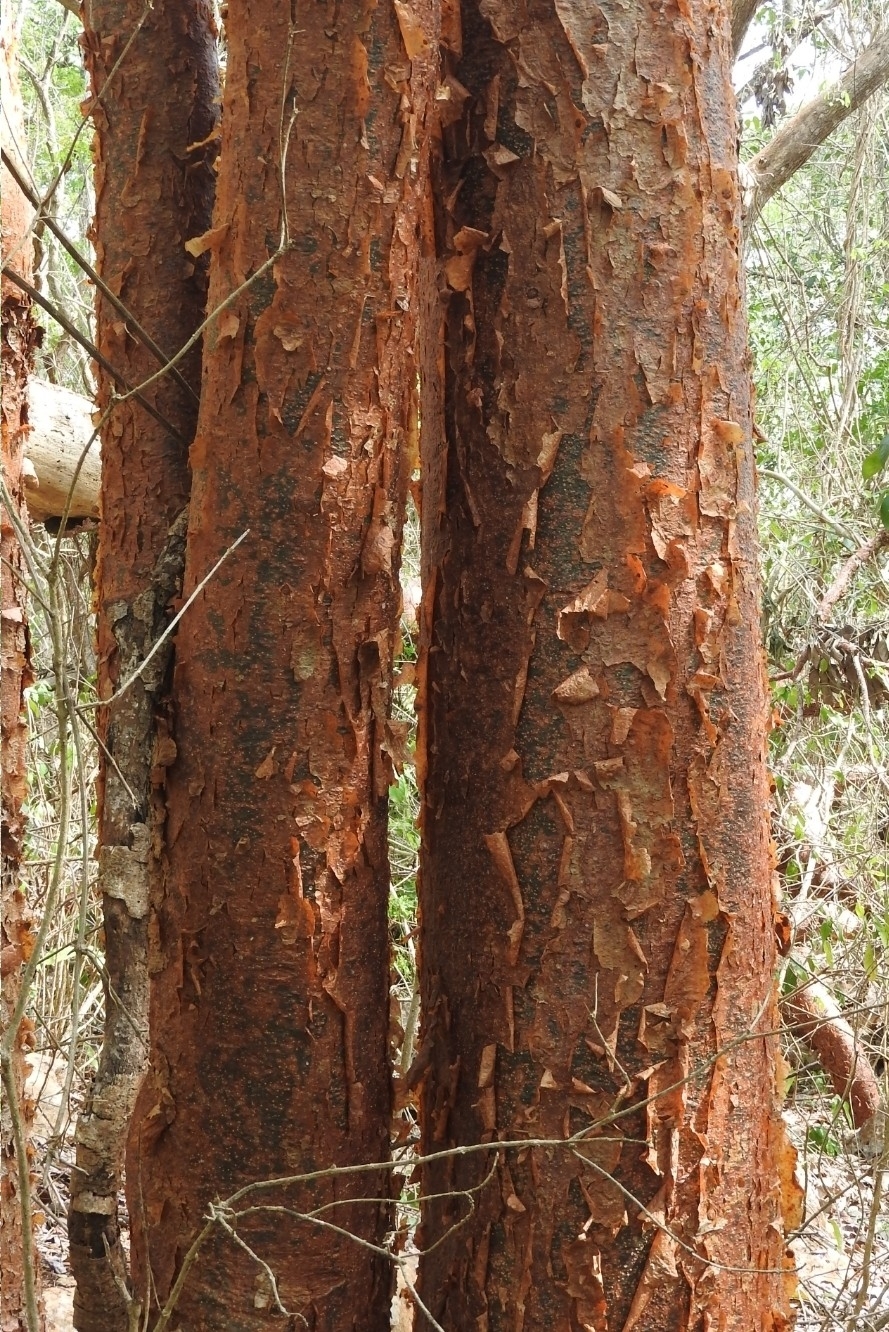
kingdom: Plantae
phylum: Tracheophyta
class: Magnoliopsida
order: Sapindales
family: Burseraceae
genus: Bursera
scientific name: Bursera simaruba
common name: Turpentine tree
